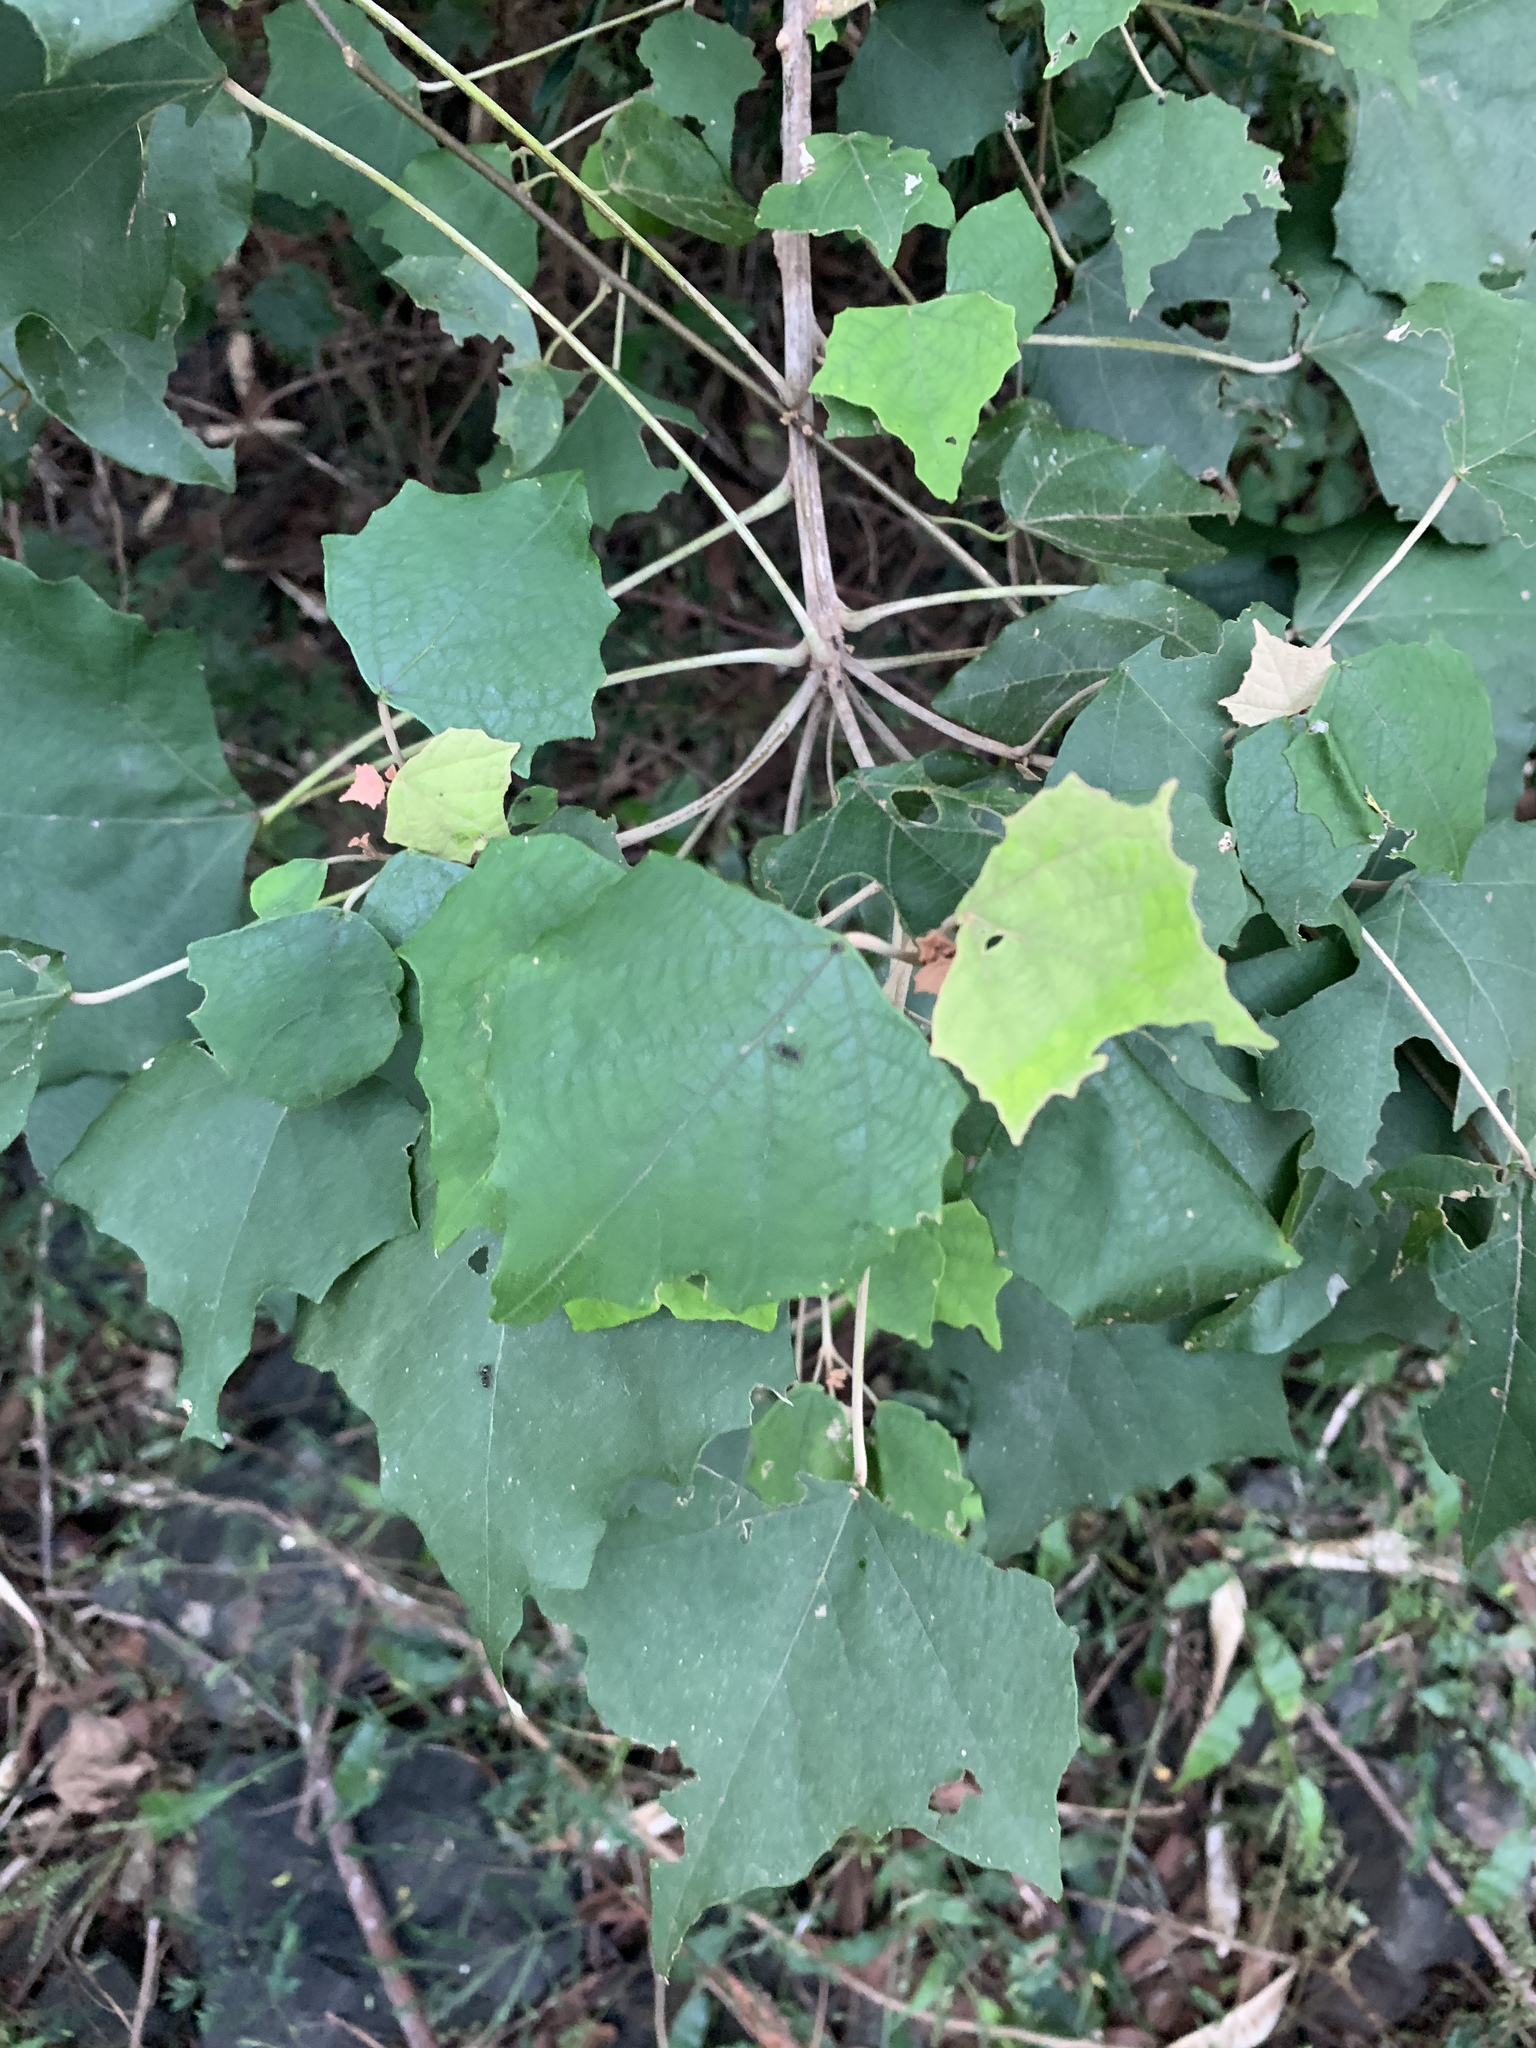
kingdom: Plantae
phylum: Tracheophyta
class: Magnoliopsida
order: Malpighiales
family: Euphorbiaceae
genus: Mallotus
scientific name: Mallotus paniculatus
